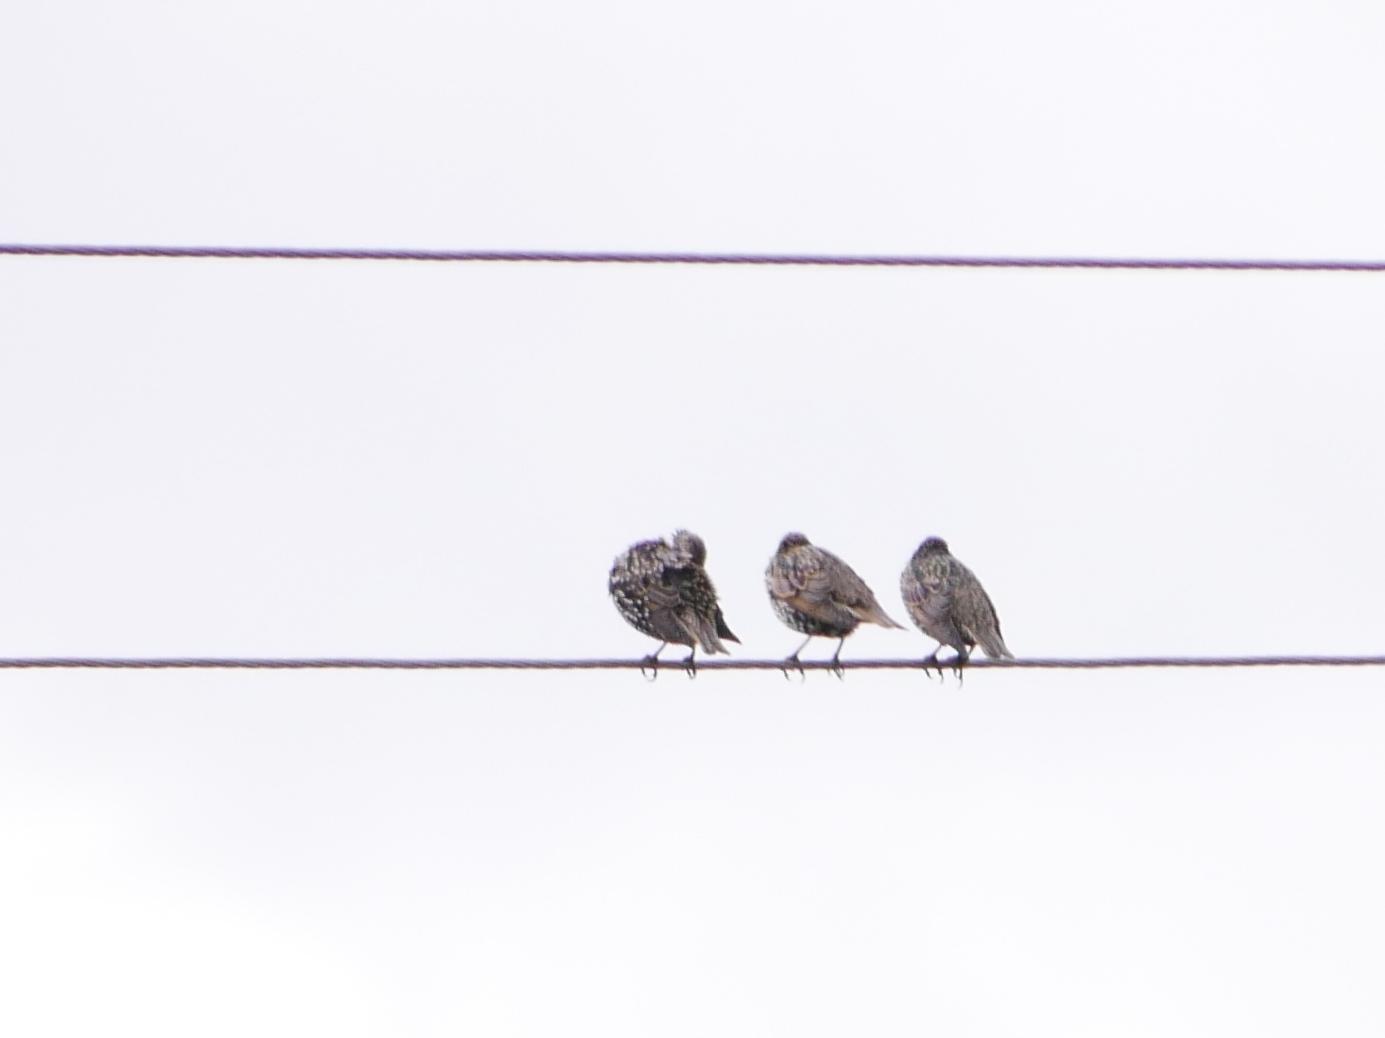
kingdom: Animalia
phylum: Chordata
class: Aves
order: Passeriformes
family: Sturnidae
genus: Sturnus
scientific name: Sturnus vulgaris
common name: Common starling
